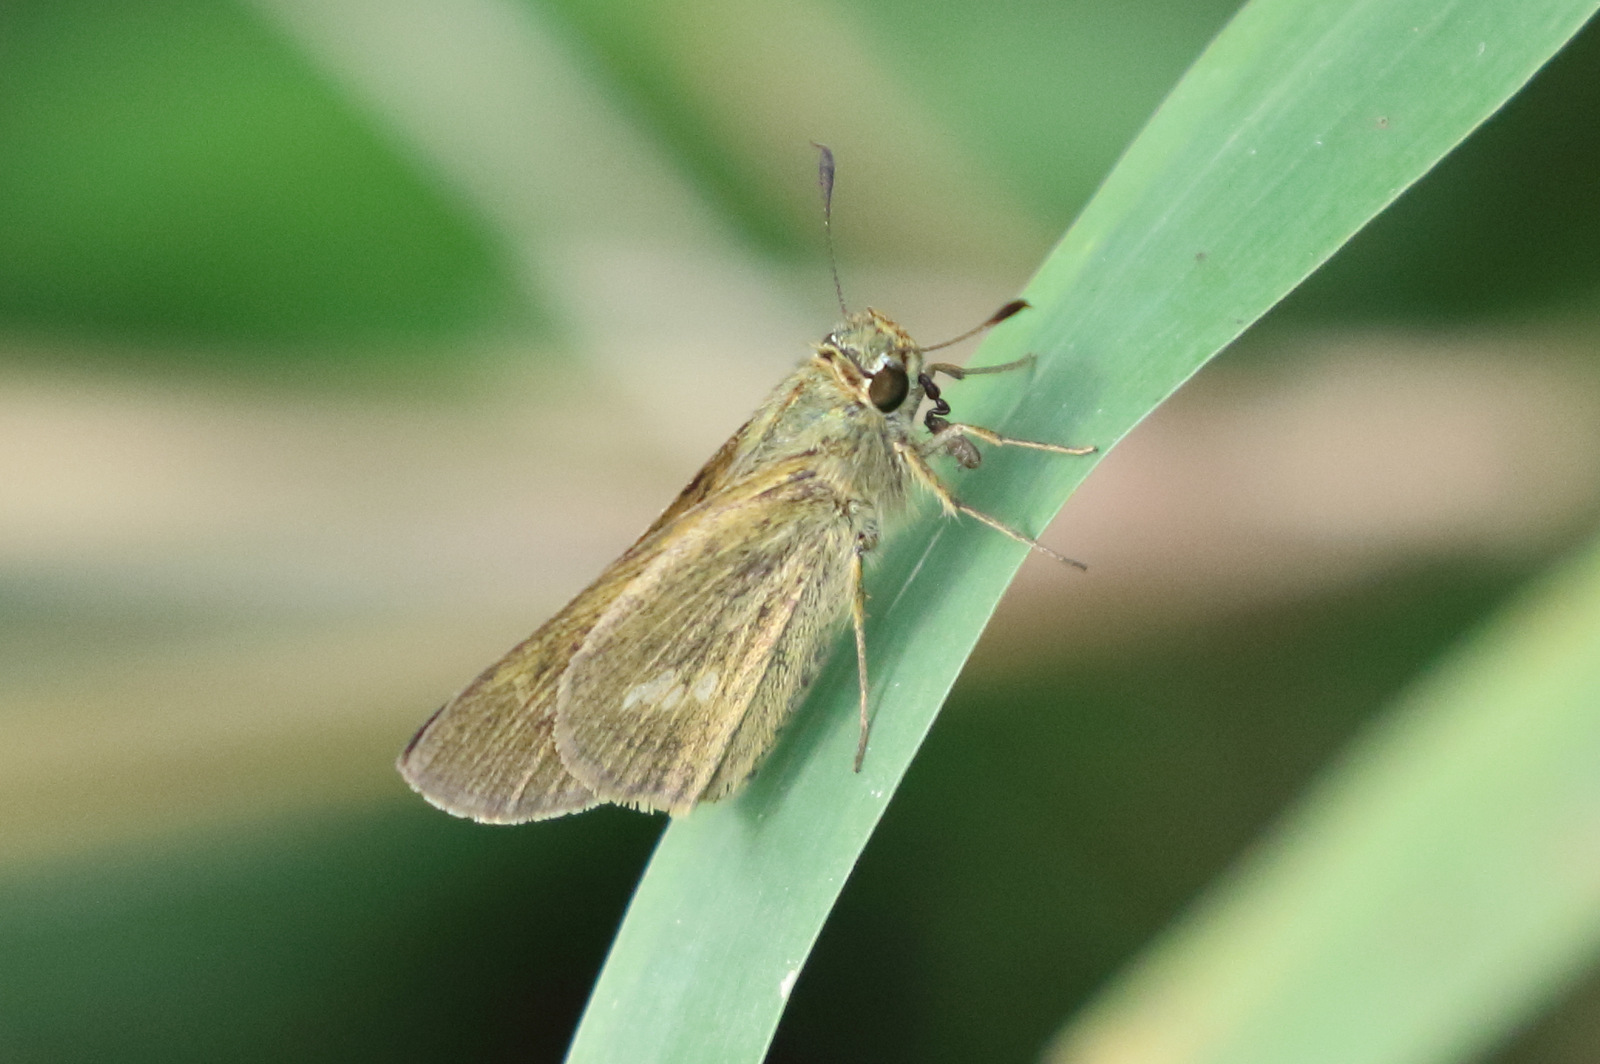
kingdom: Animalia
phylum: Arthropoda
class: Insecta
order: Lepidoptera
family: Hesperiidae
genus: Parnara
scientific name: Parnara amalia
